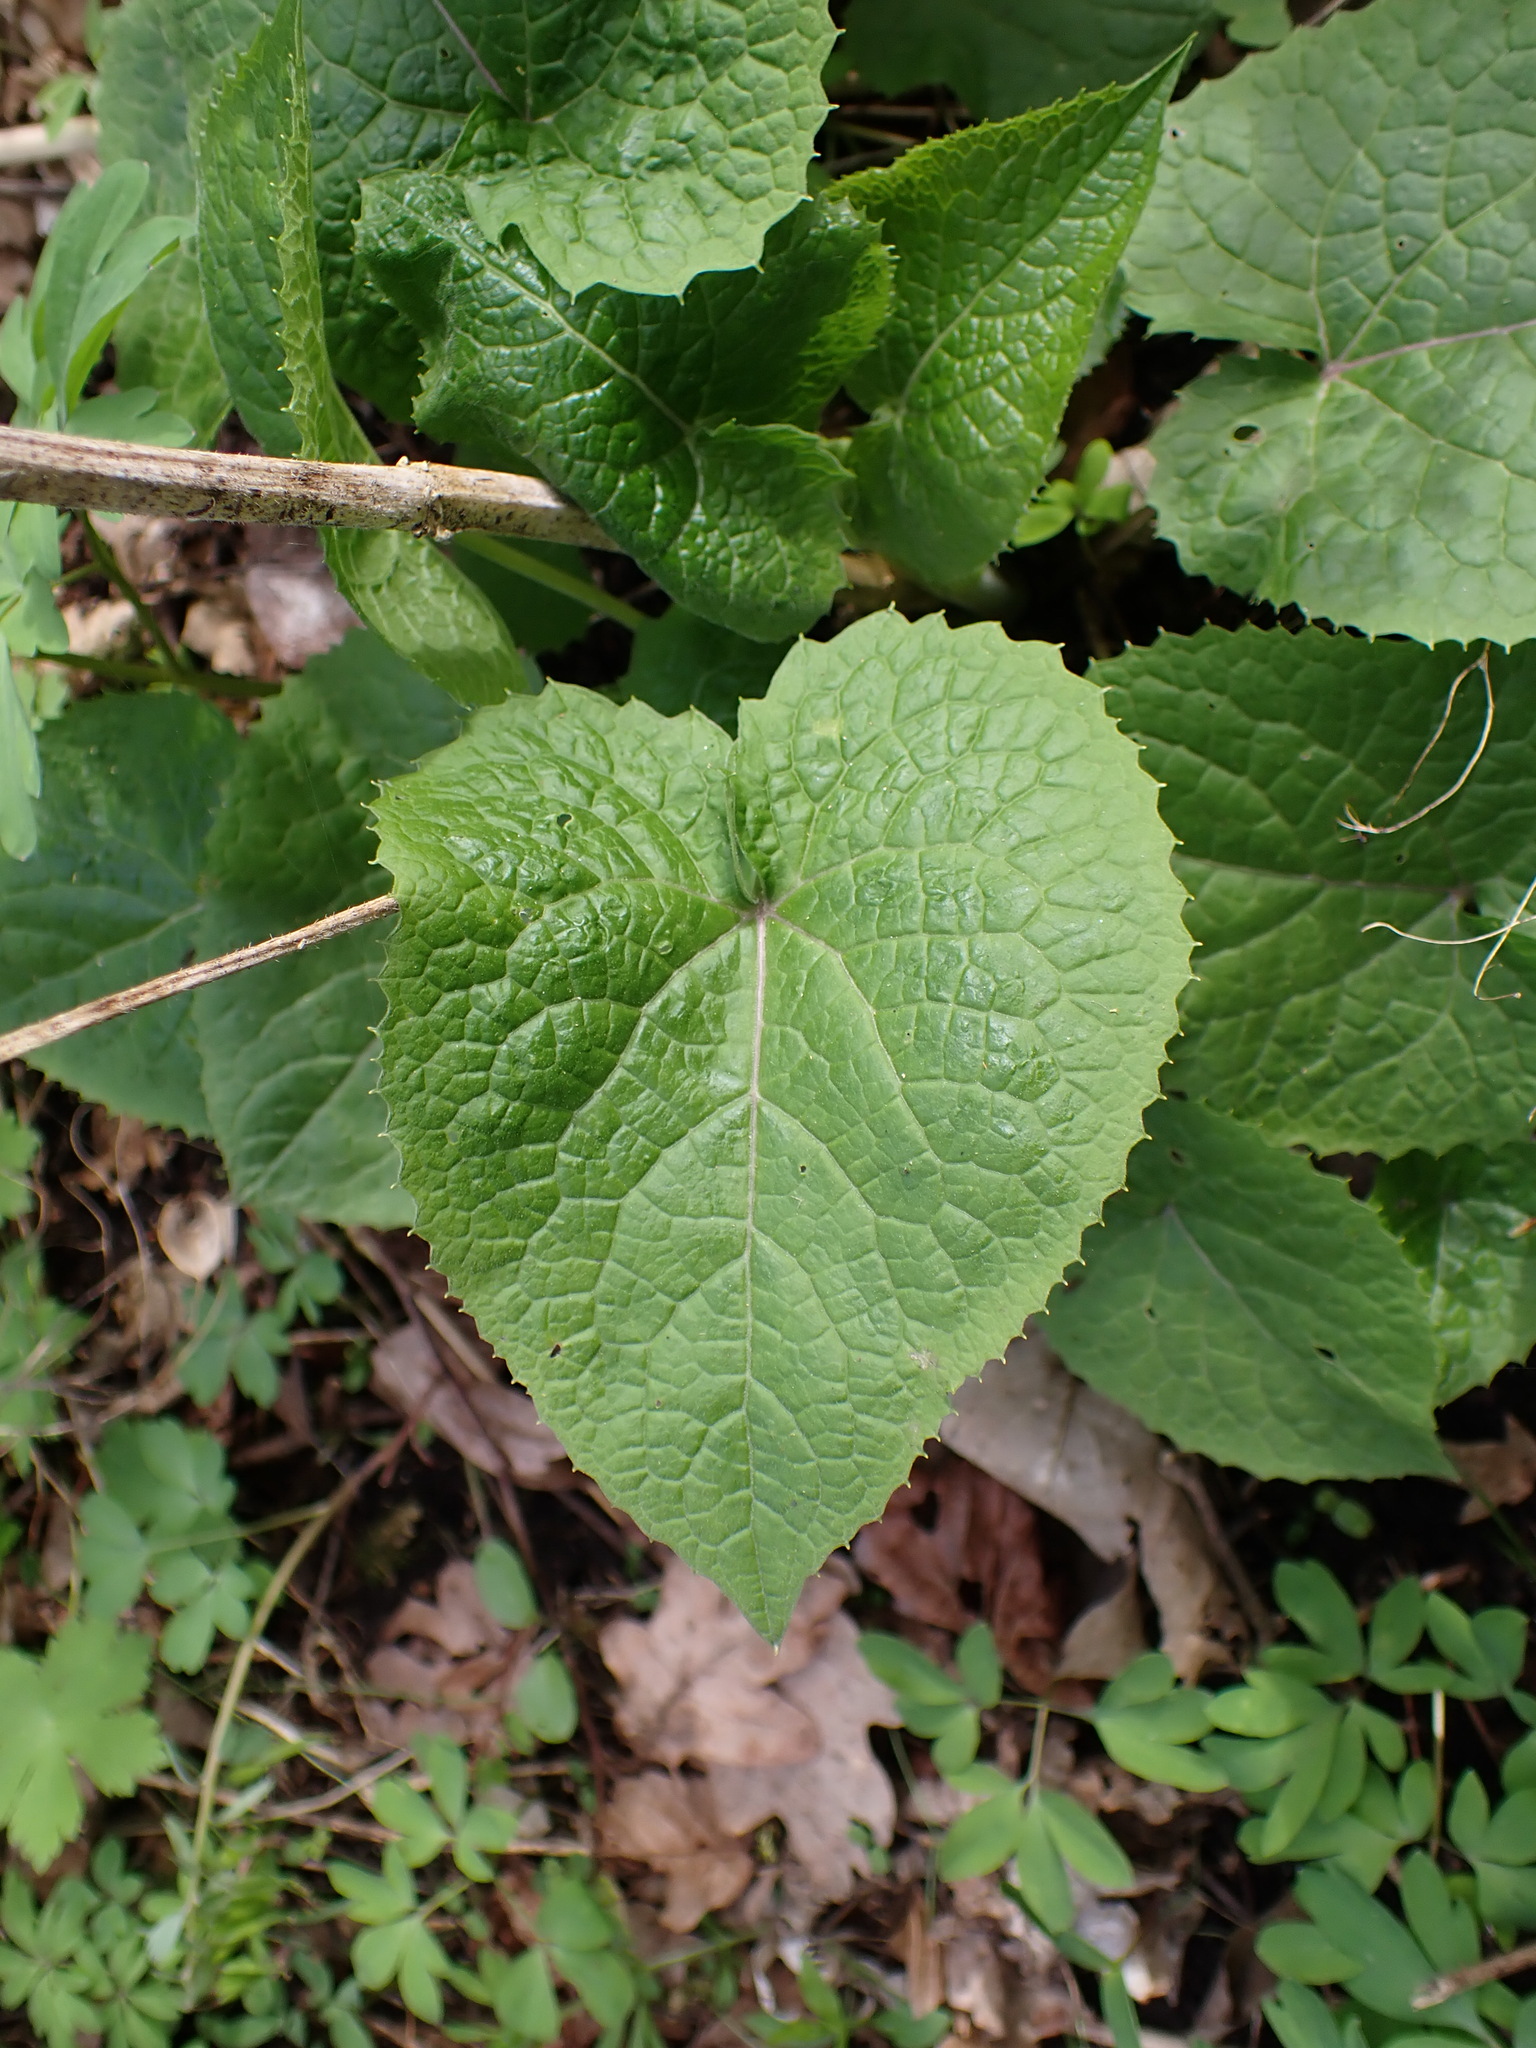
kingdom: Plantae
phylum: Tracheophyta
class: Magnoliopsida
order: Brassicales
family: Brassicaceae
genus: Lunaria
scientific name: Lunaria rediviva
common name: Perennial honesty
